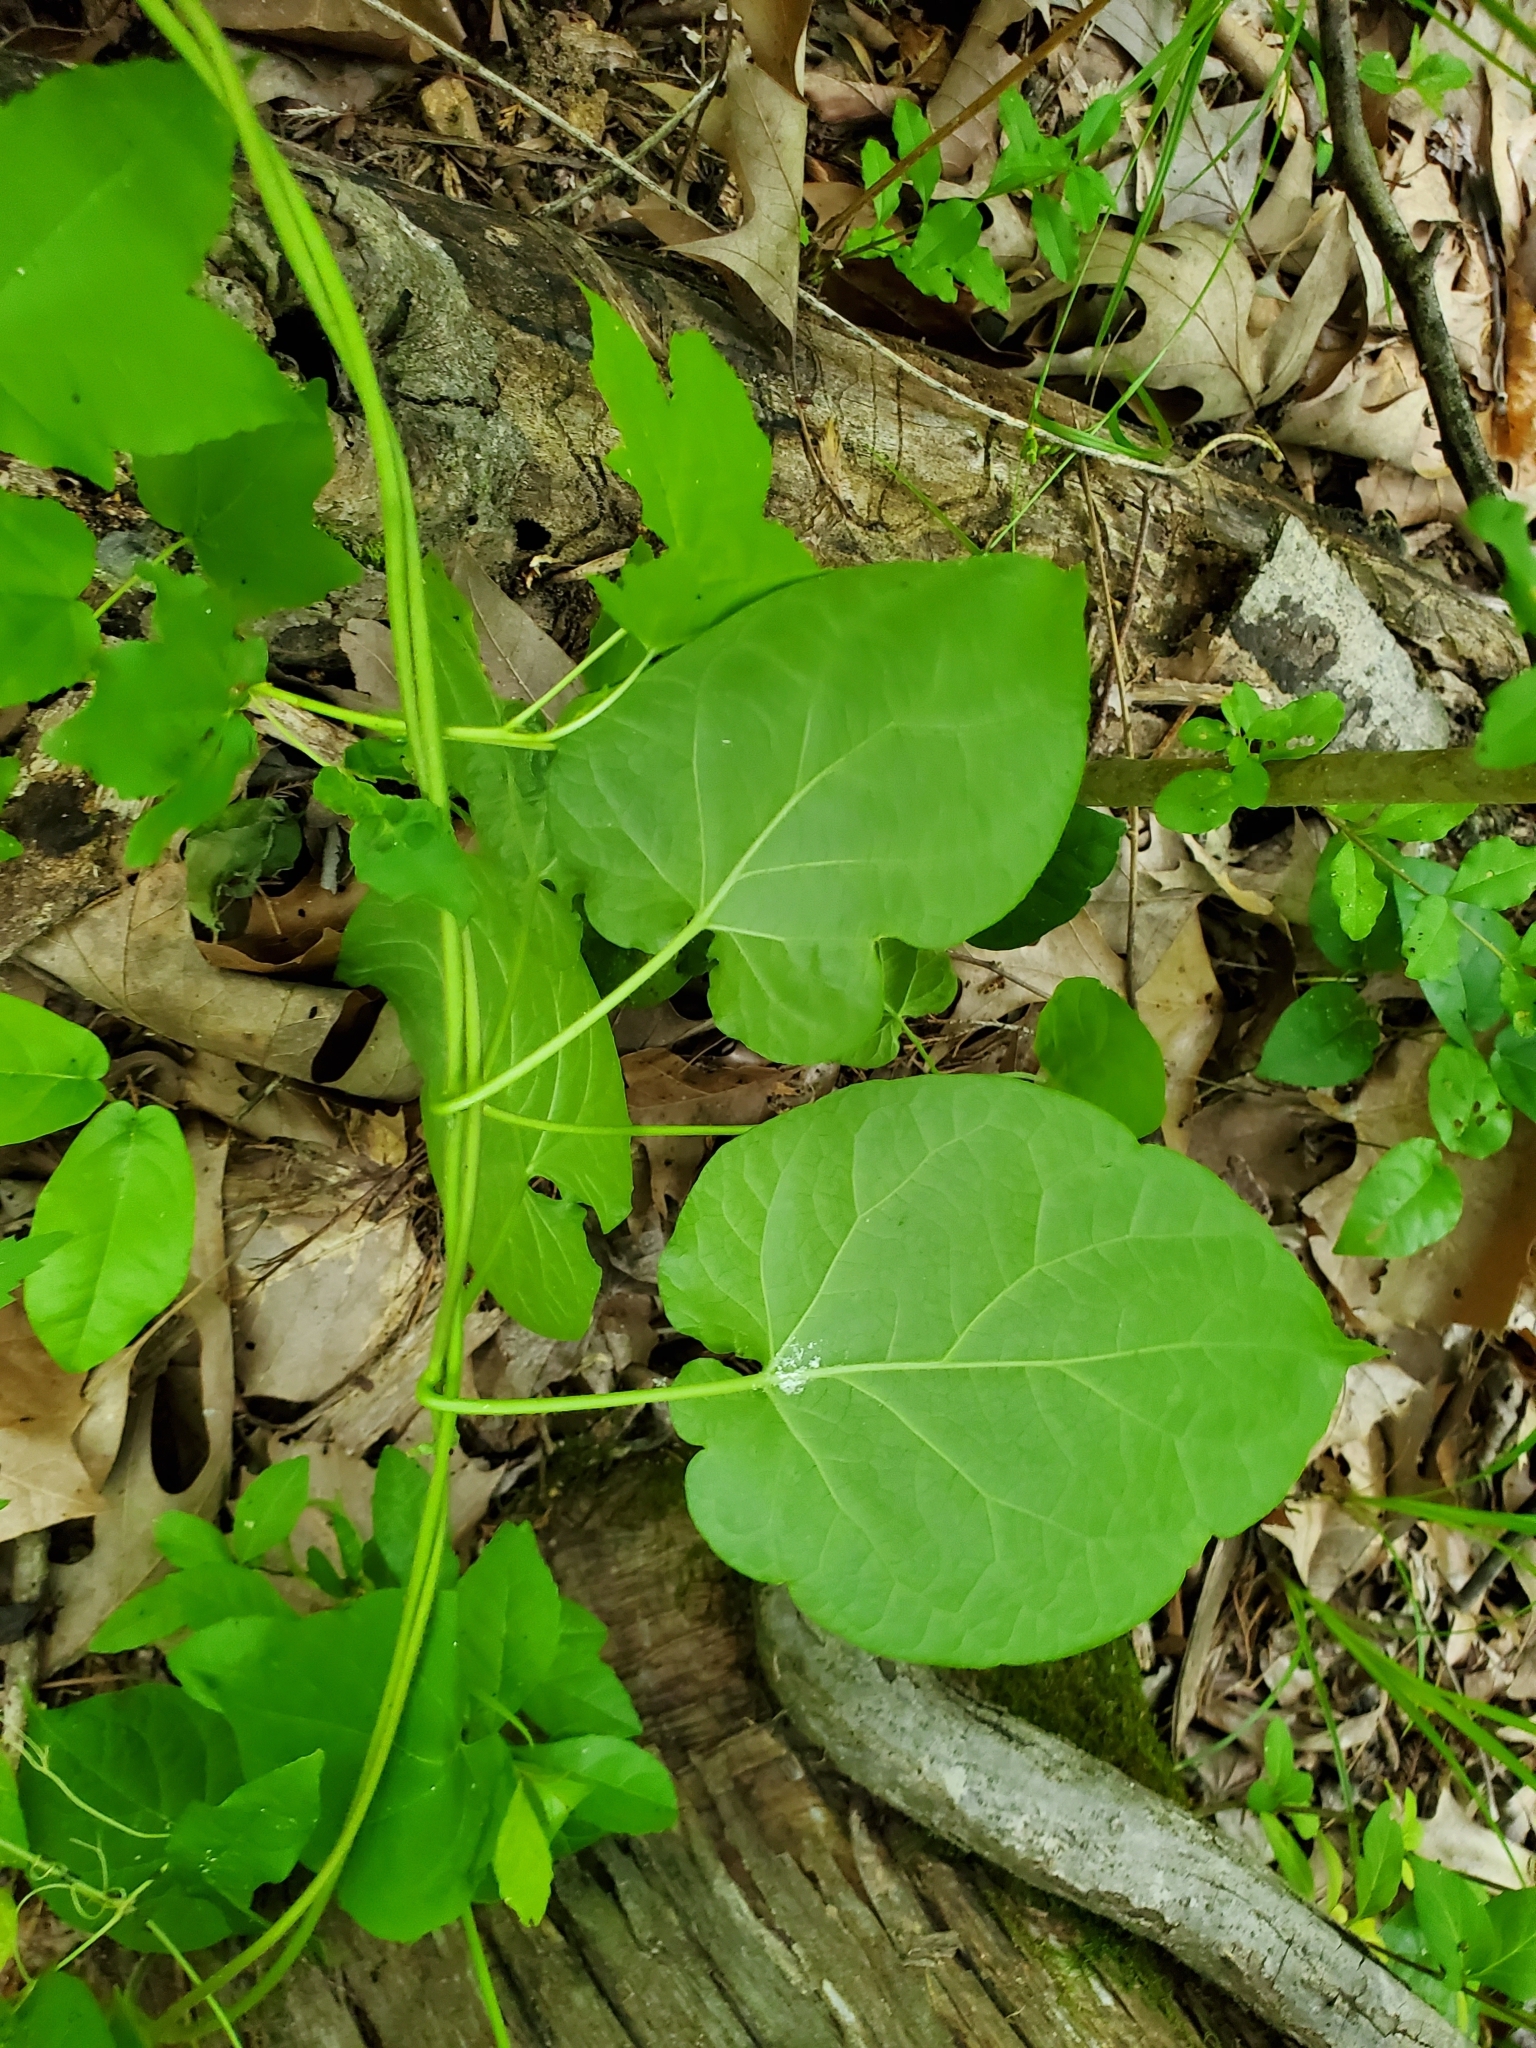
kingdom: Plantae
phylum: Tracheophyta
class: Magnoliopsida
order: Gentianales
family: Apocynaceae
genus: Gonolobus
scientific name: Gonolobus suberosus
